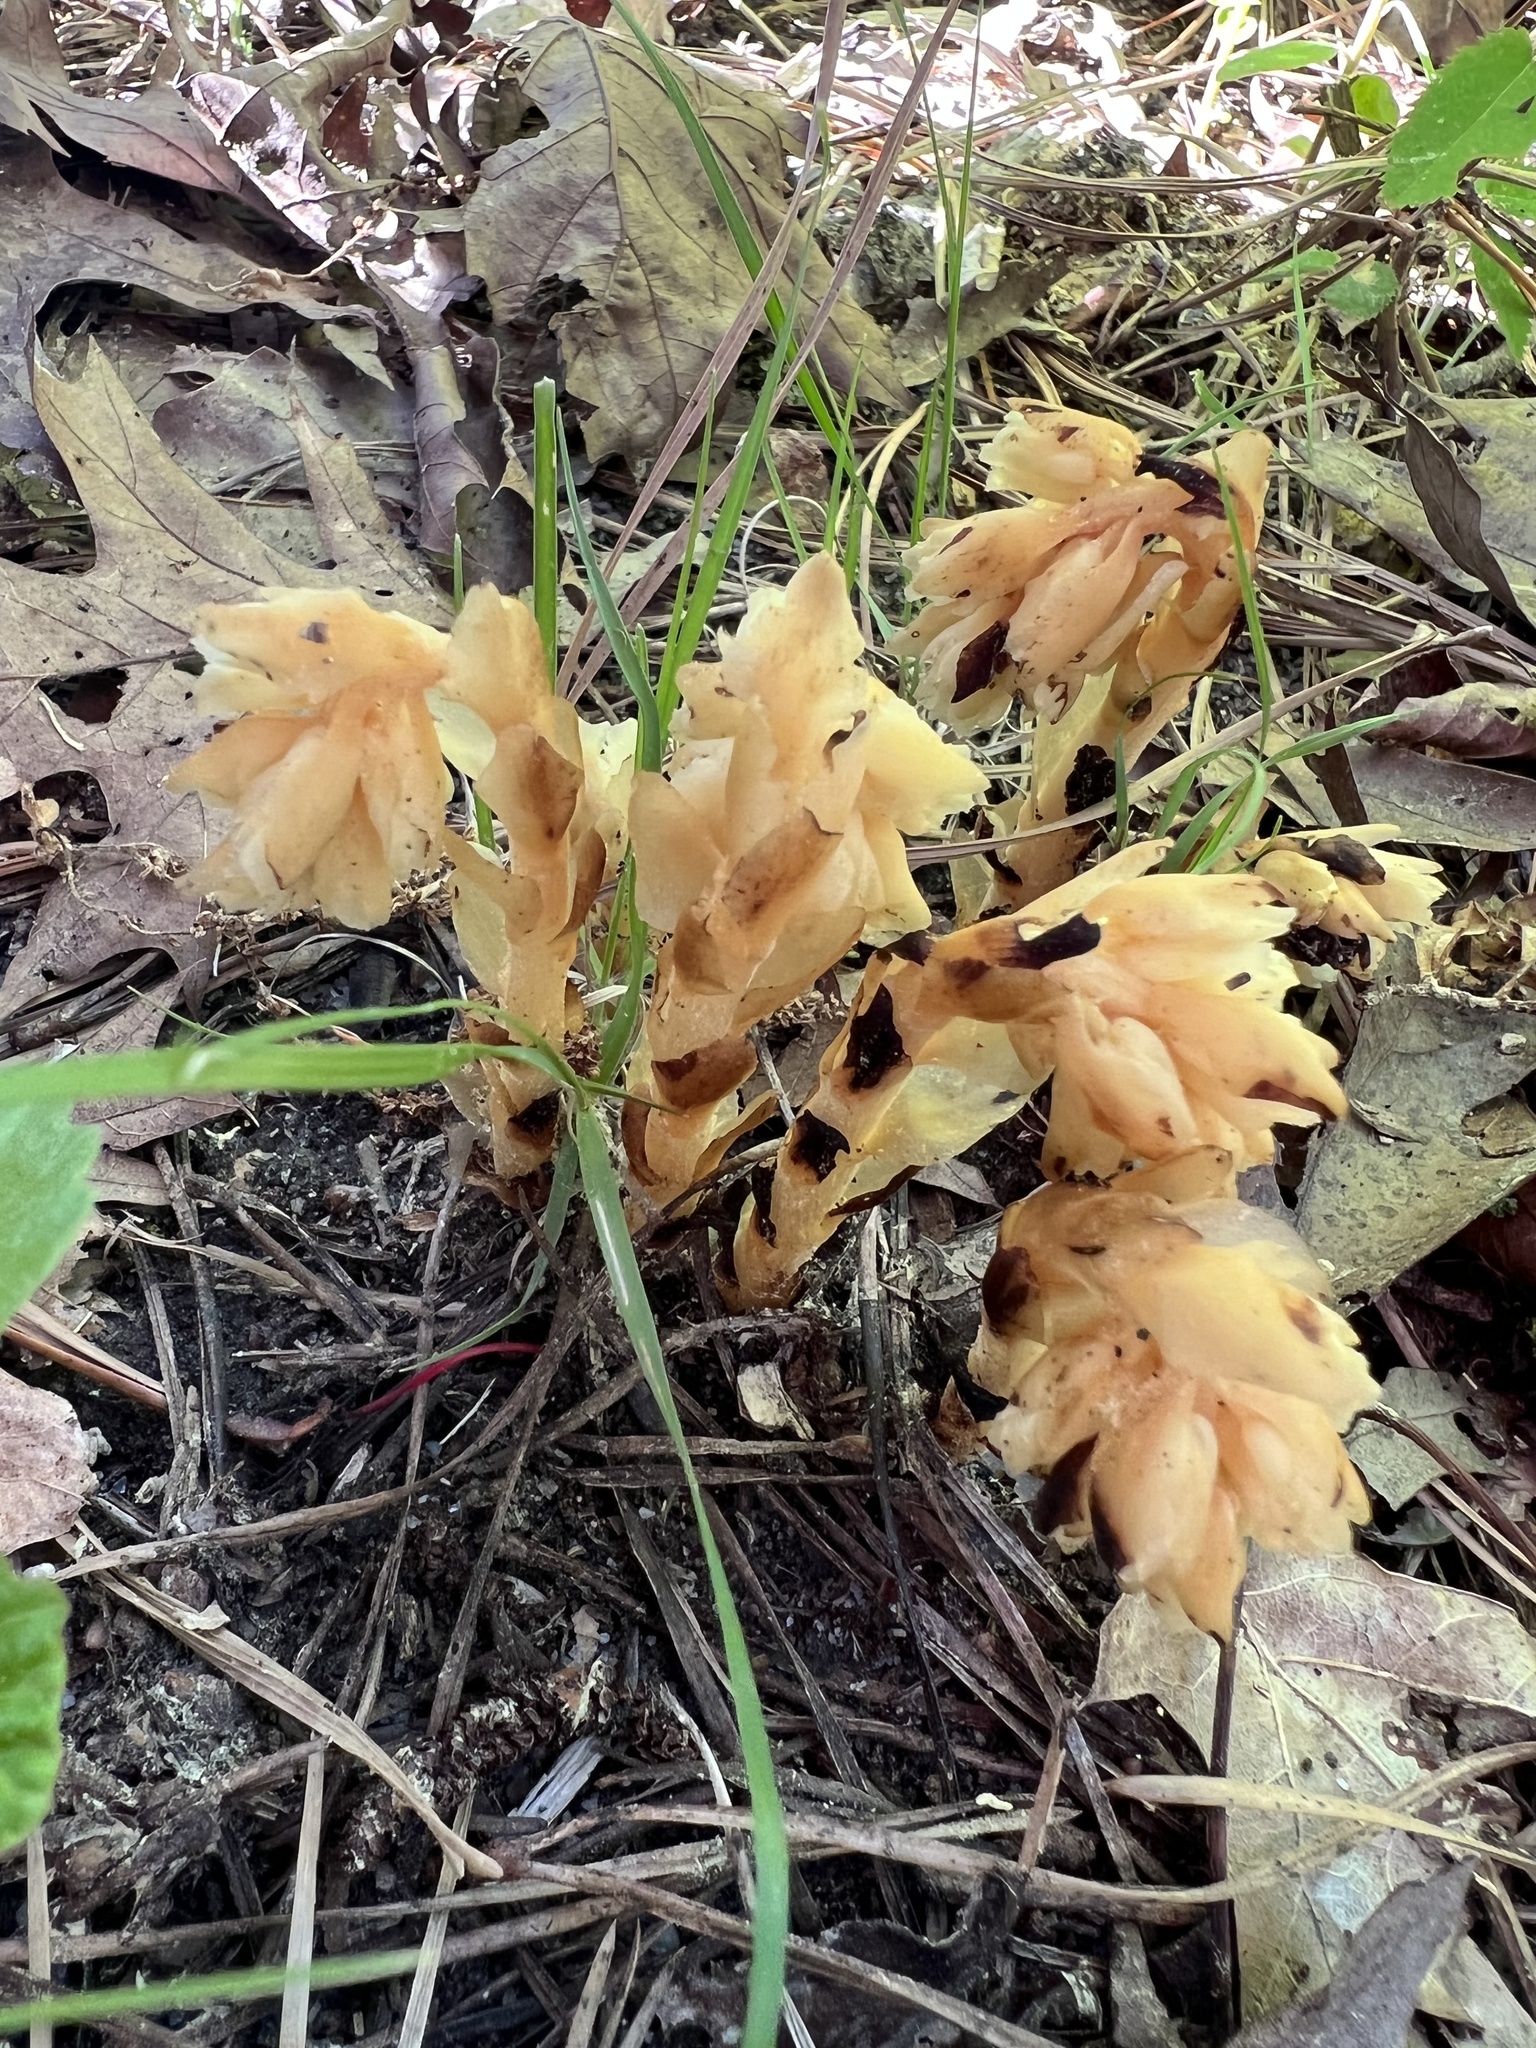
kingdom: Plantae
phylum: Tracheophyta
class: Magnoliopsida
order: Ericales
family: Ericaceae
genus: Hypopitys
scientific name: Hypopitys monotropa
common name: Yellow bird's-nest
